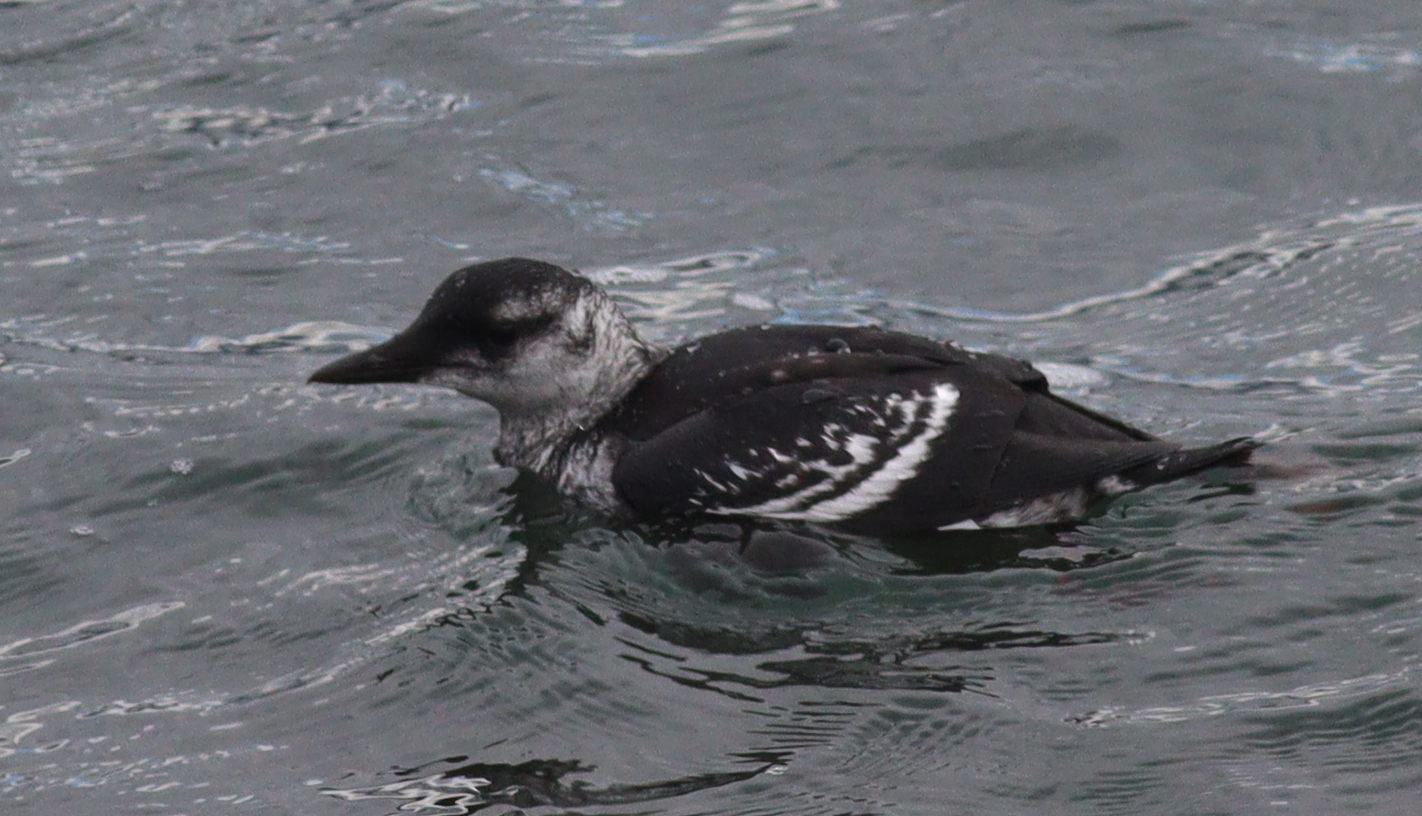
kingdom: Animalia
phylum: Chordata
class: Aves
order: Charadriiformes
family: Alcidae
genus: Cepphus
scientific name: Cepphus grylle
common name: Black guillemot
